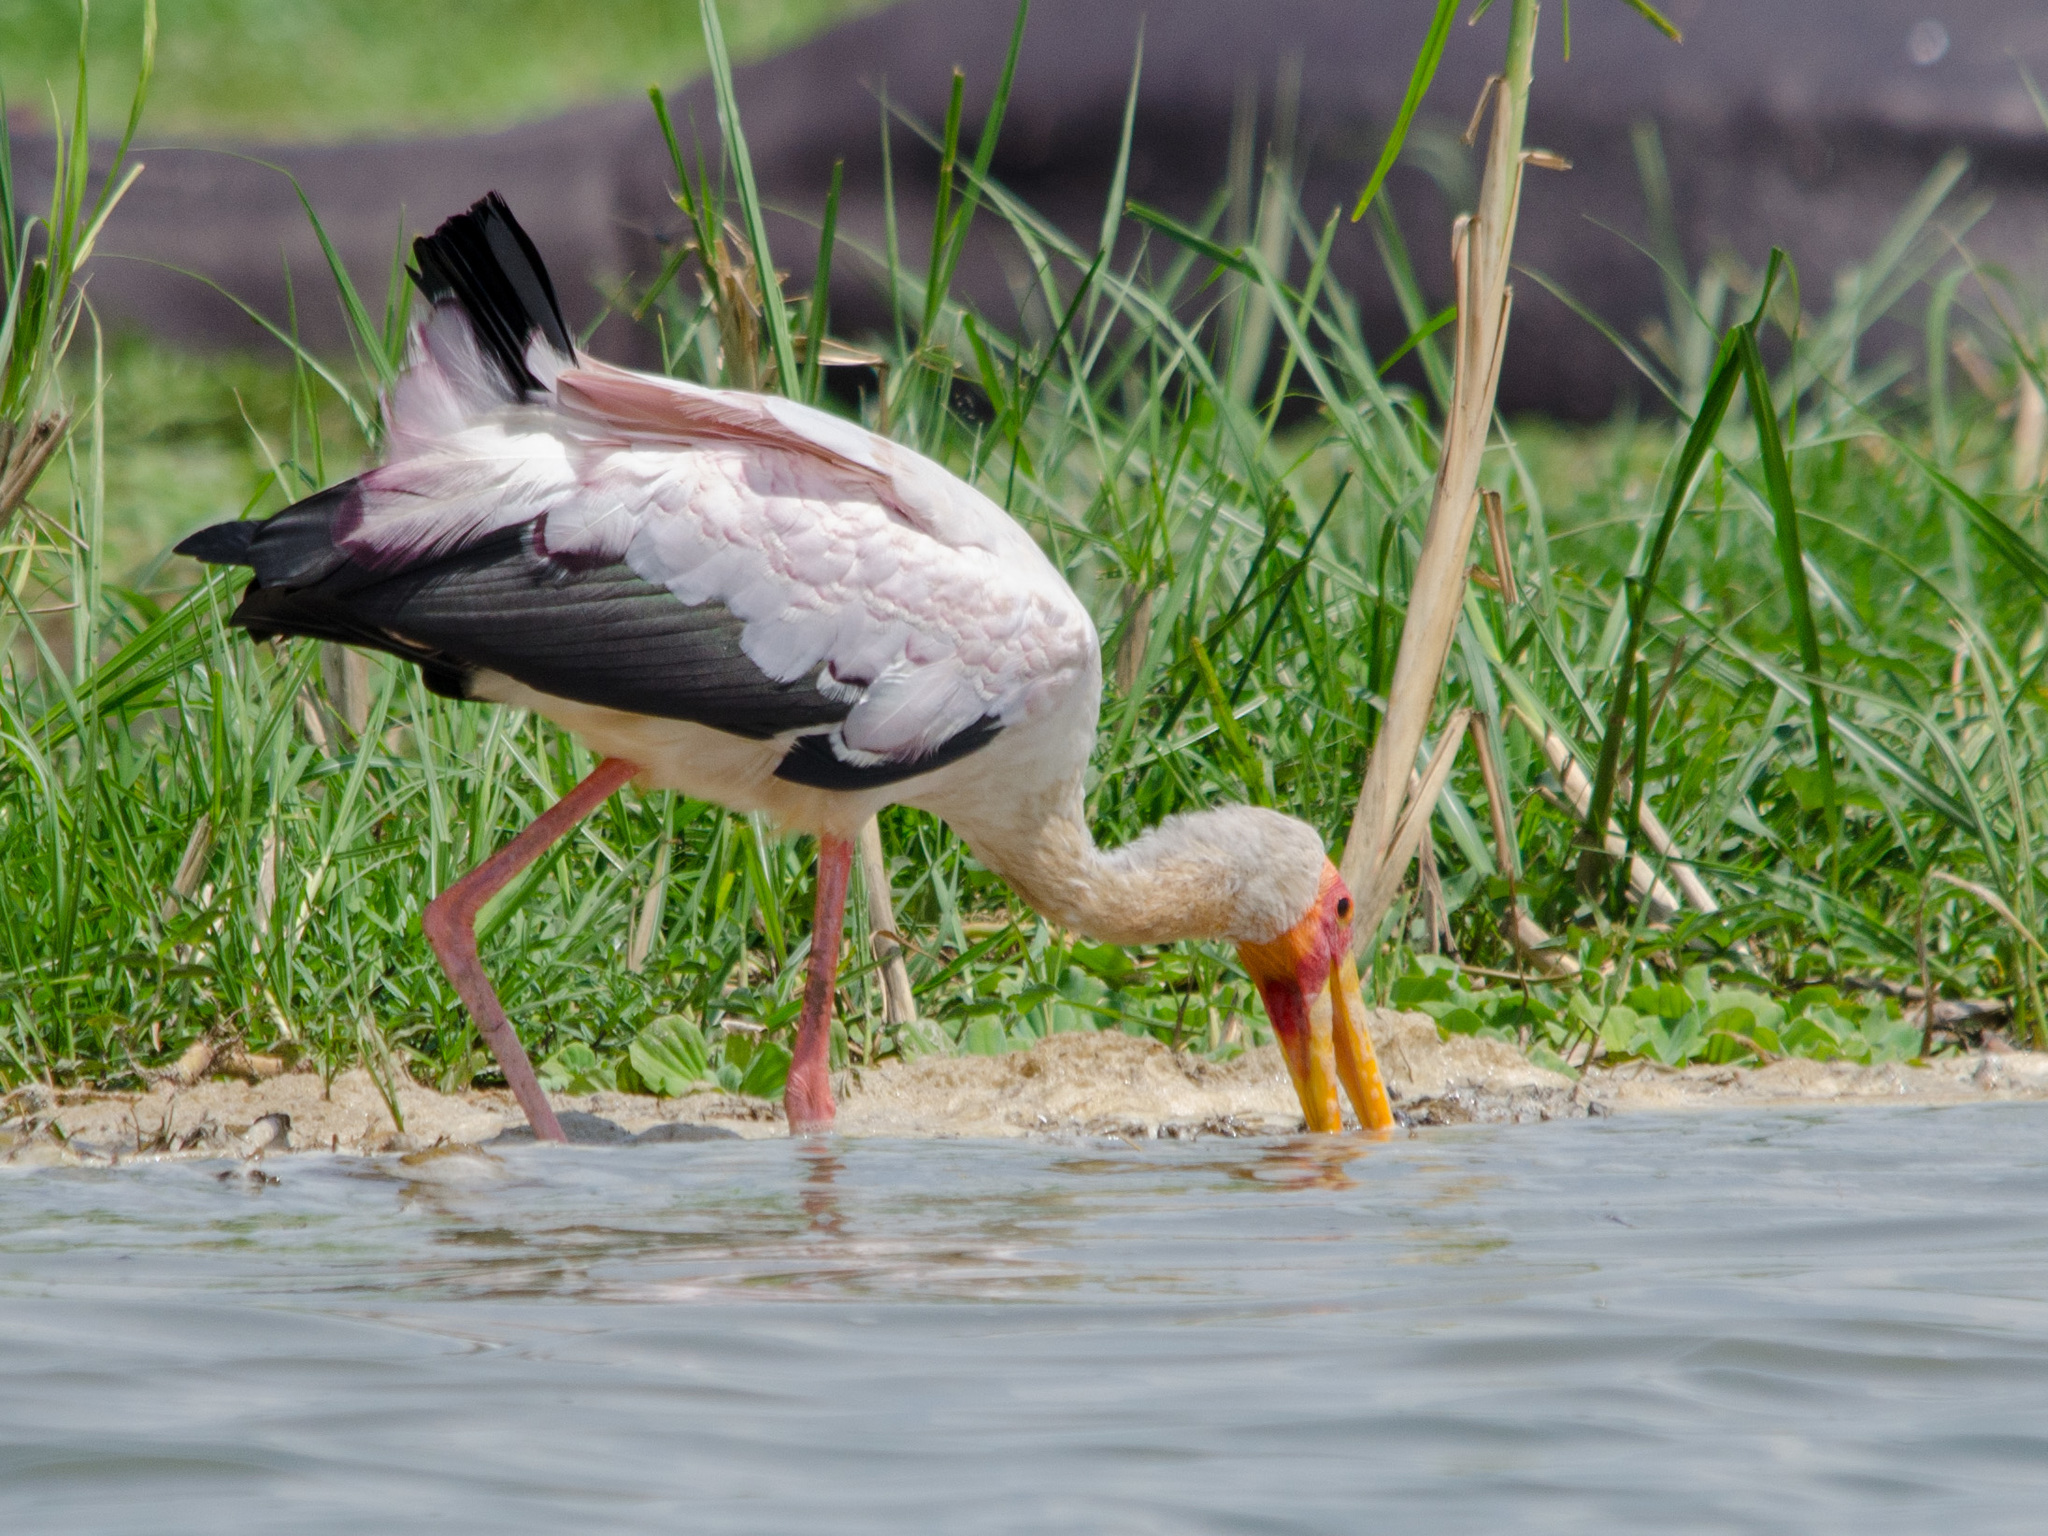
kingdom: Animalia
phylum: Chordata
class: Aves
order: Ciconiiformes
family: Ciconiidae
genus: Mycteria
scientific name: Mycteria ibis
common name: Yellow-billed stork
